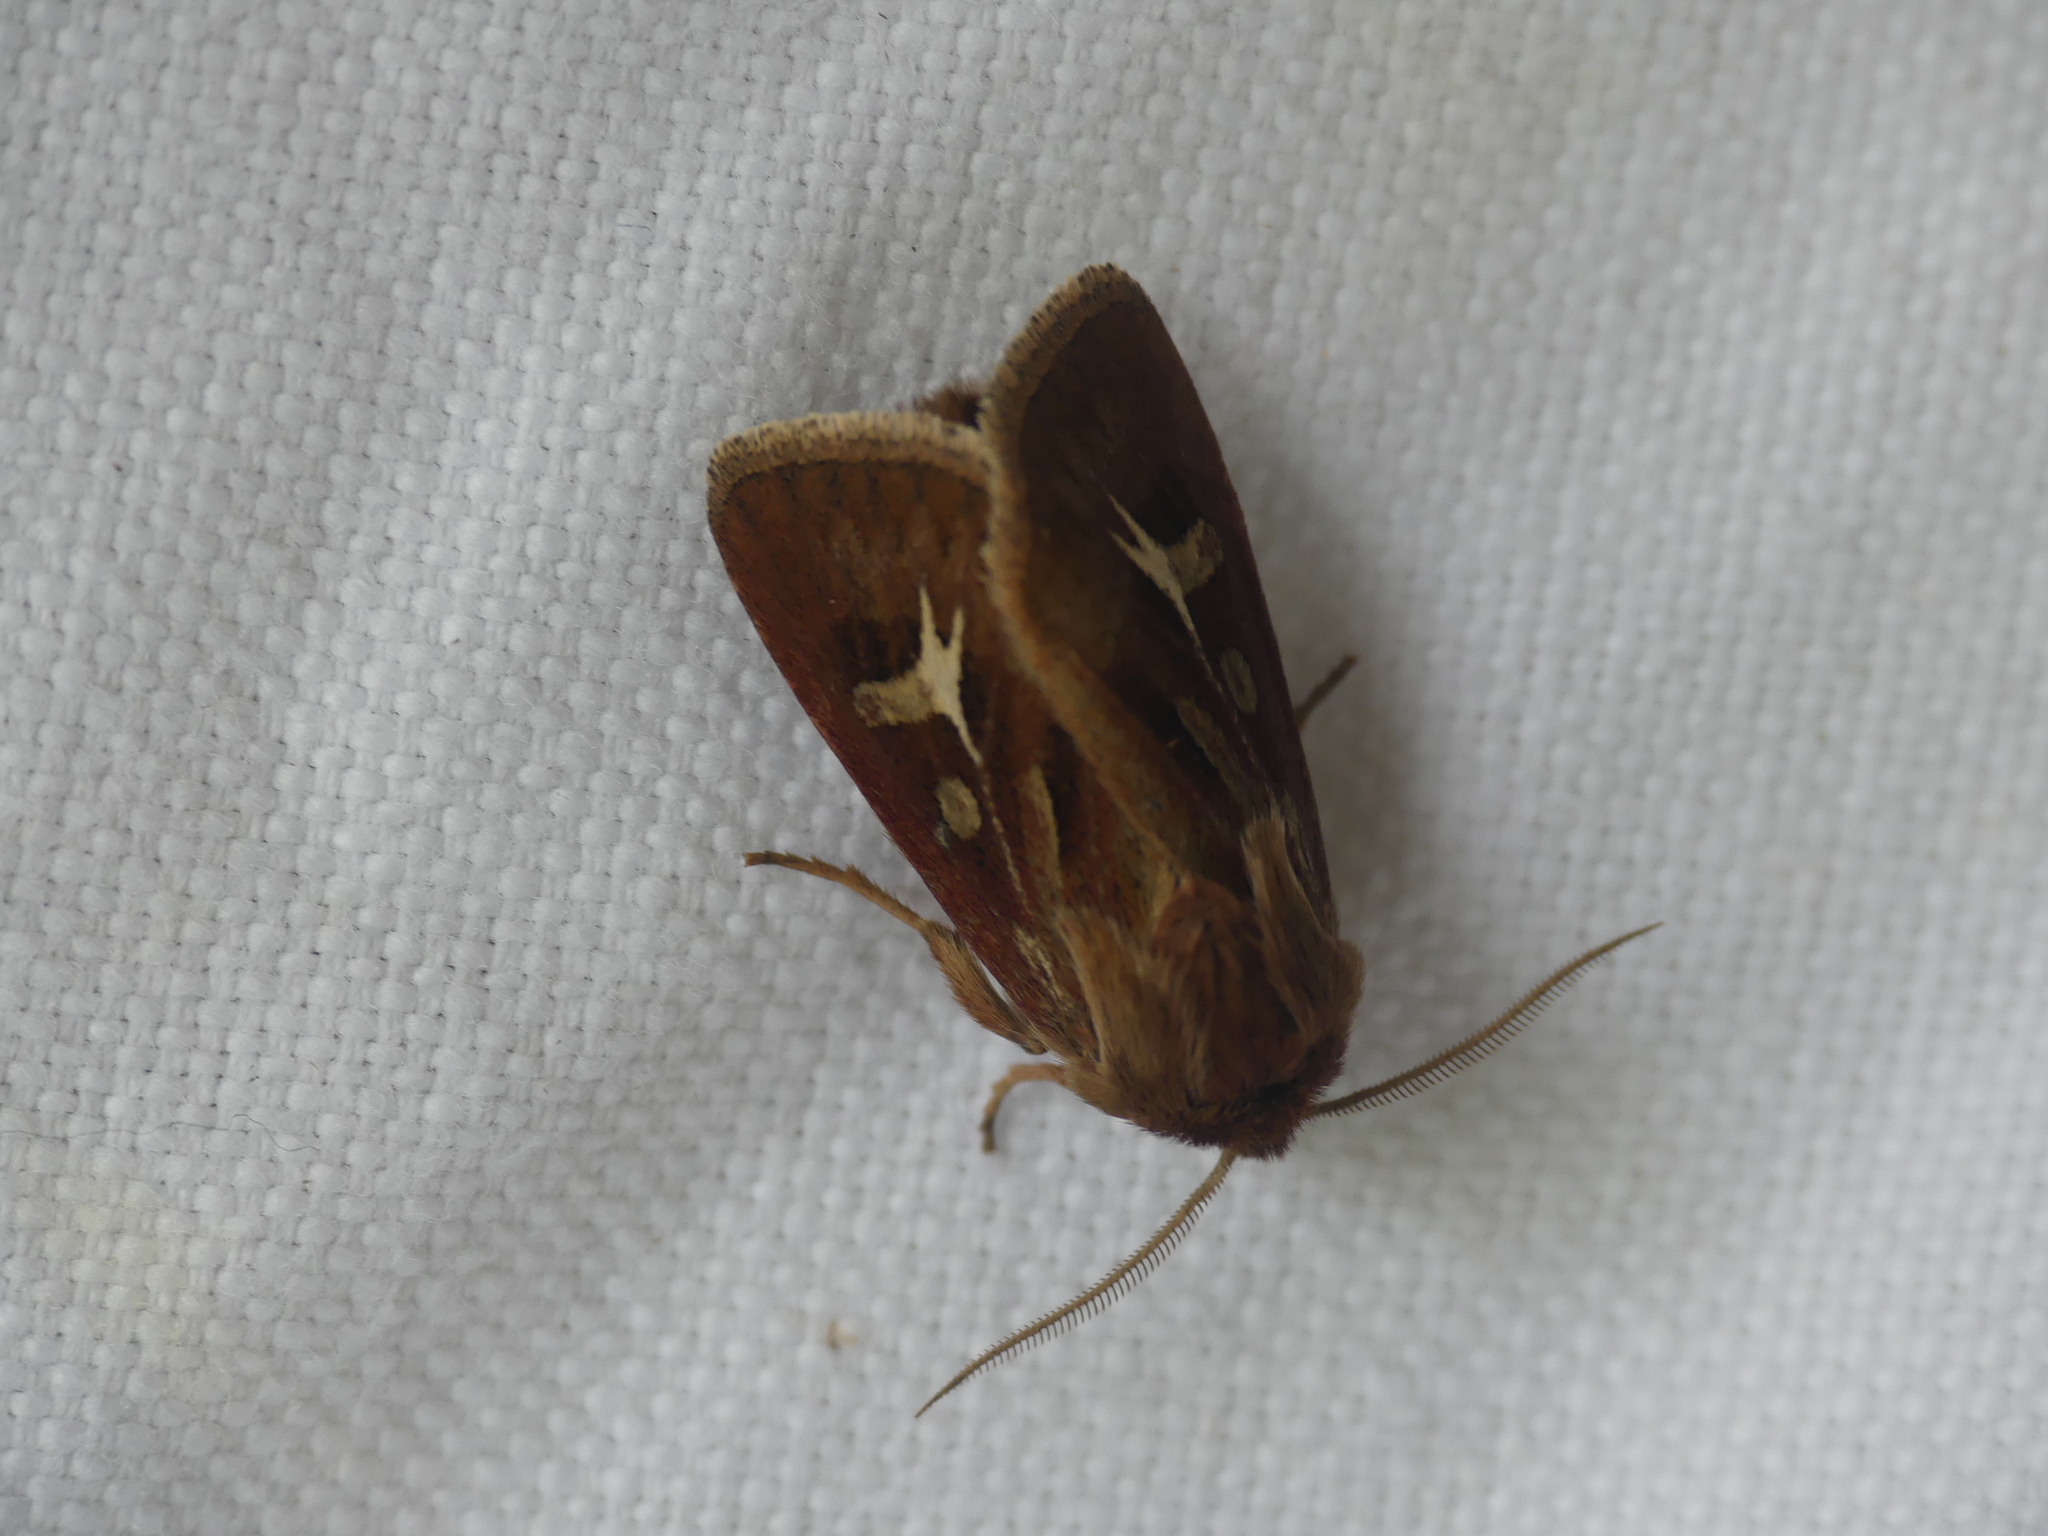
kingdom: Animalia
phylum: Arthropoda
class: Insecta
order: Lepidoptera
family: Noctuidae
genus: Cerapteryx
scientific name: Cerapteryx graminis
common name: Antler moth
